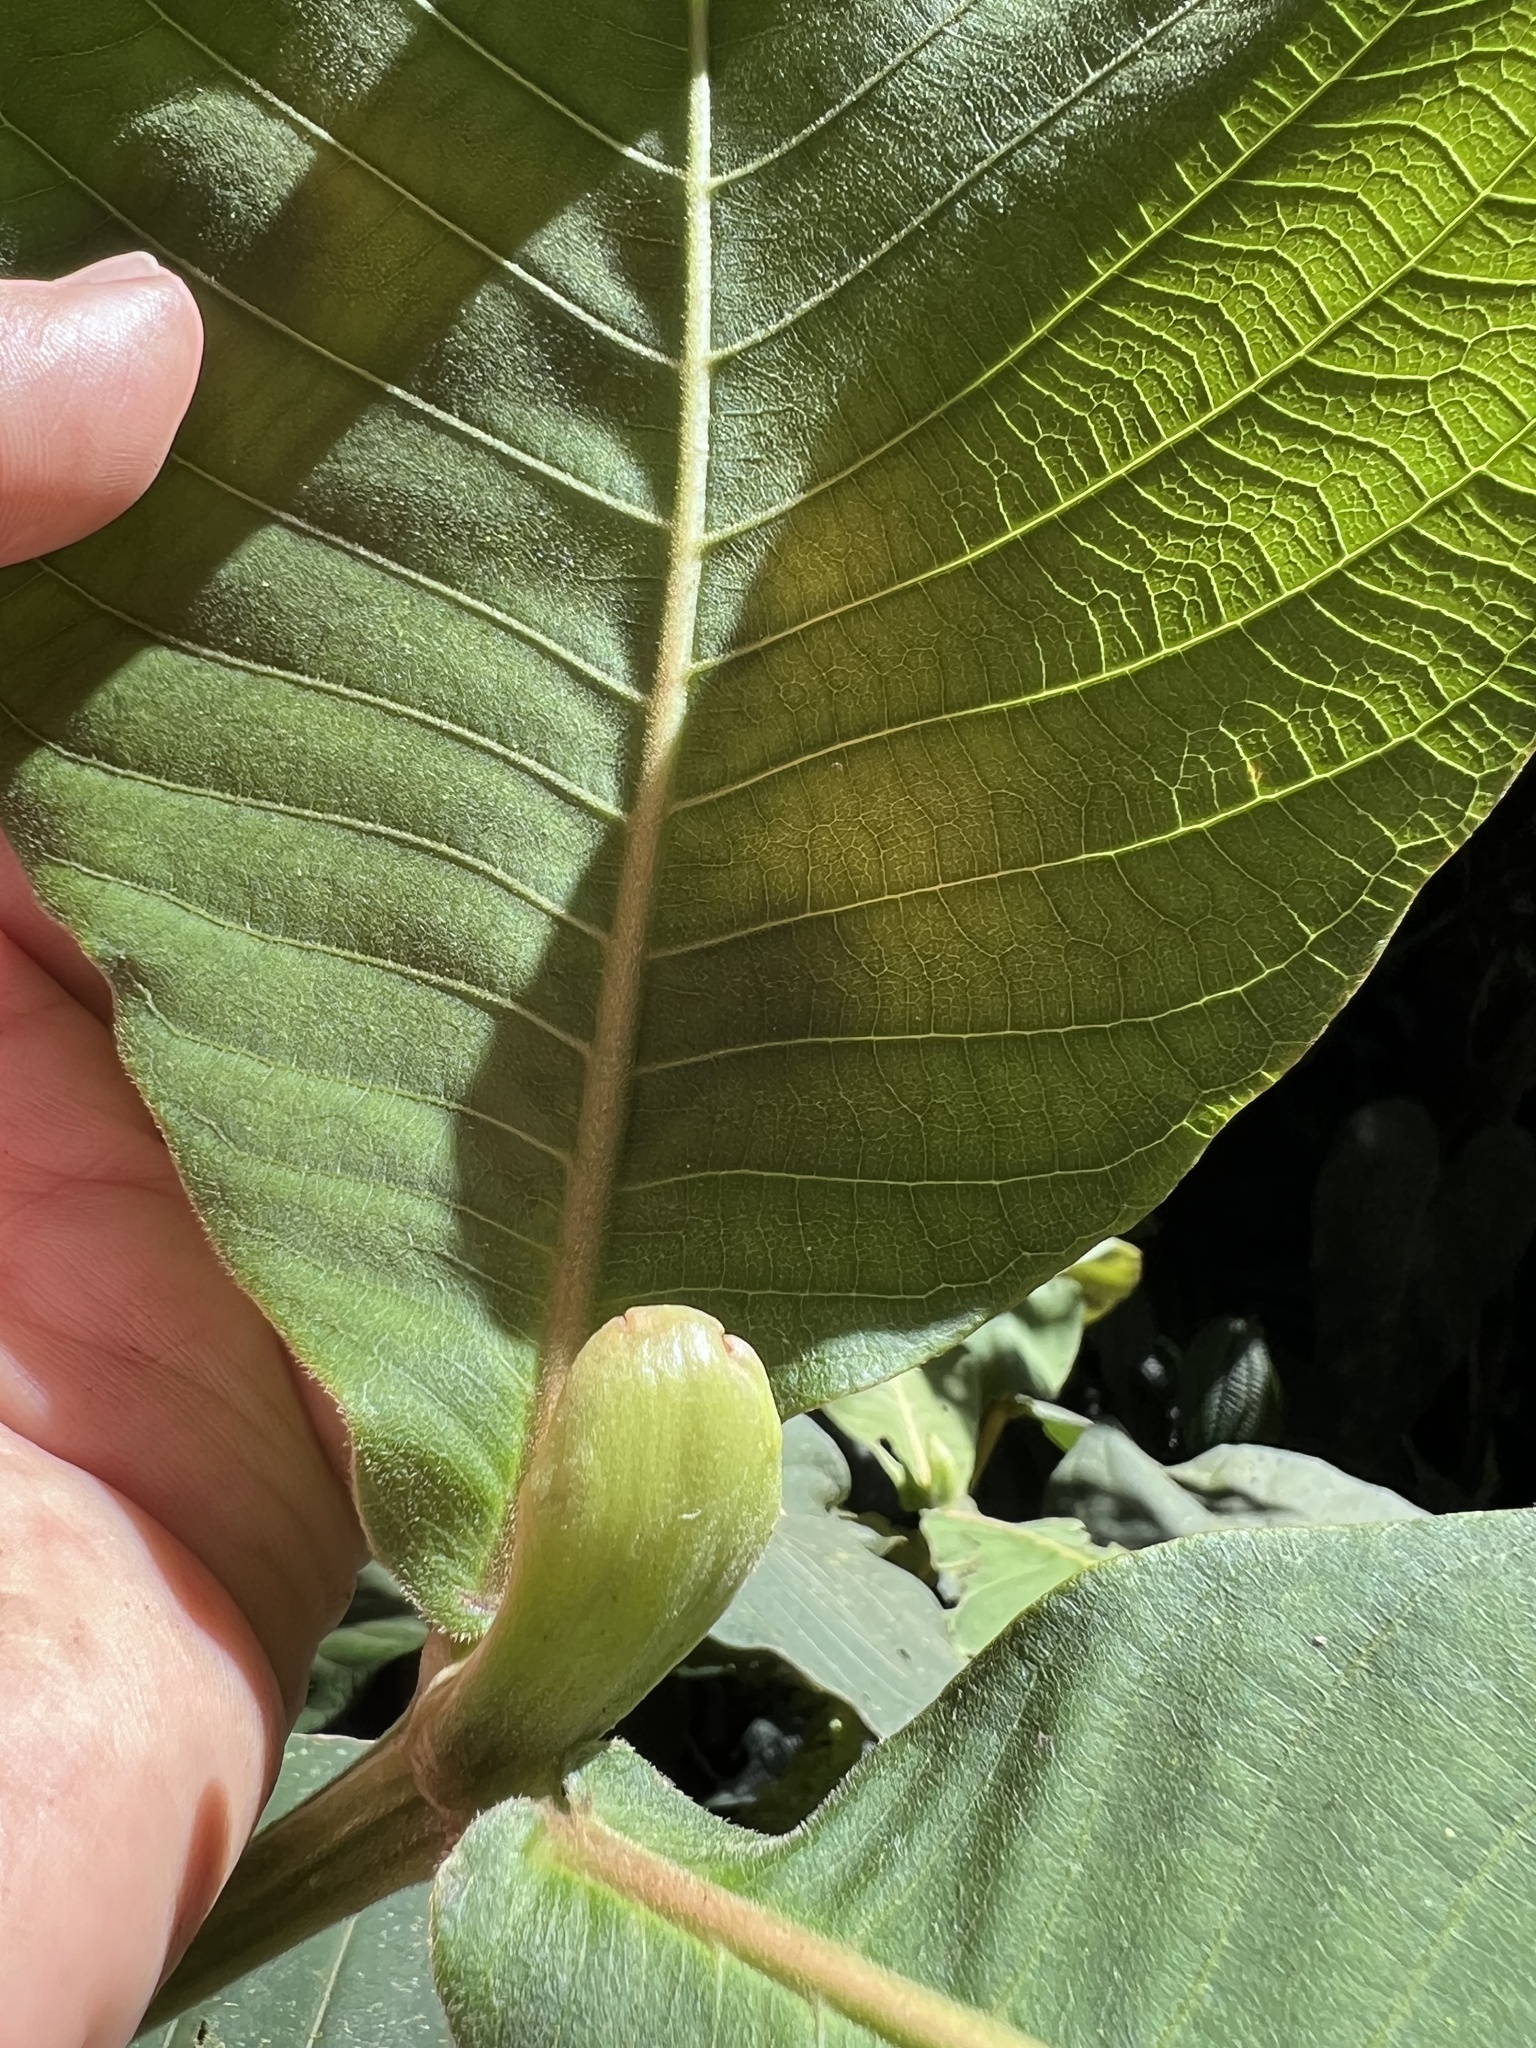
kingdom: Plantae
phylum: Tracheophyta
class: Magnoliopsida
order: Gentianales
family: Rubiaceae
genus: Elaeagia
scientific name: Elaeagia auriculata
